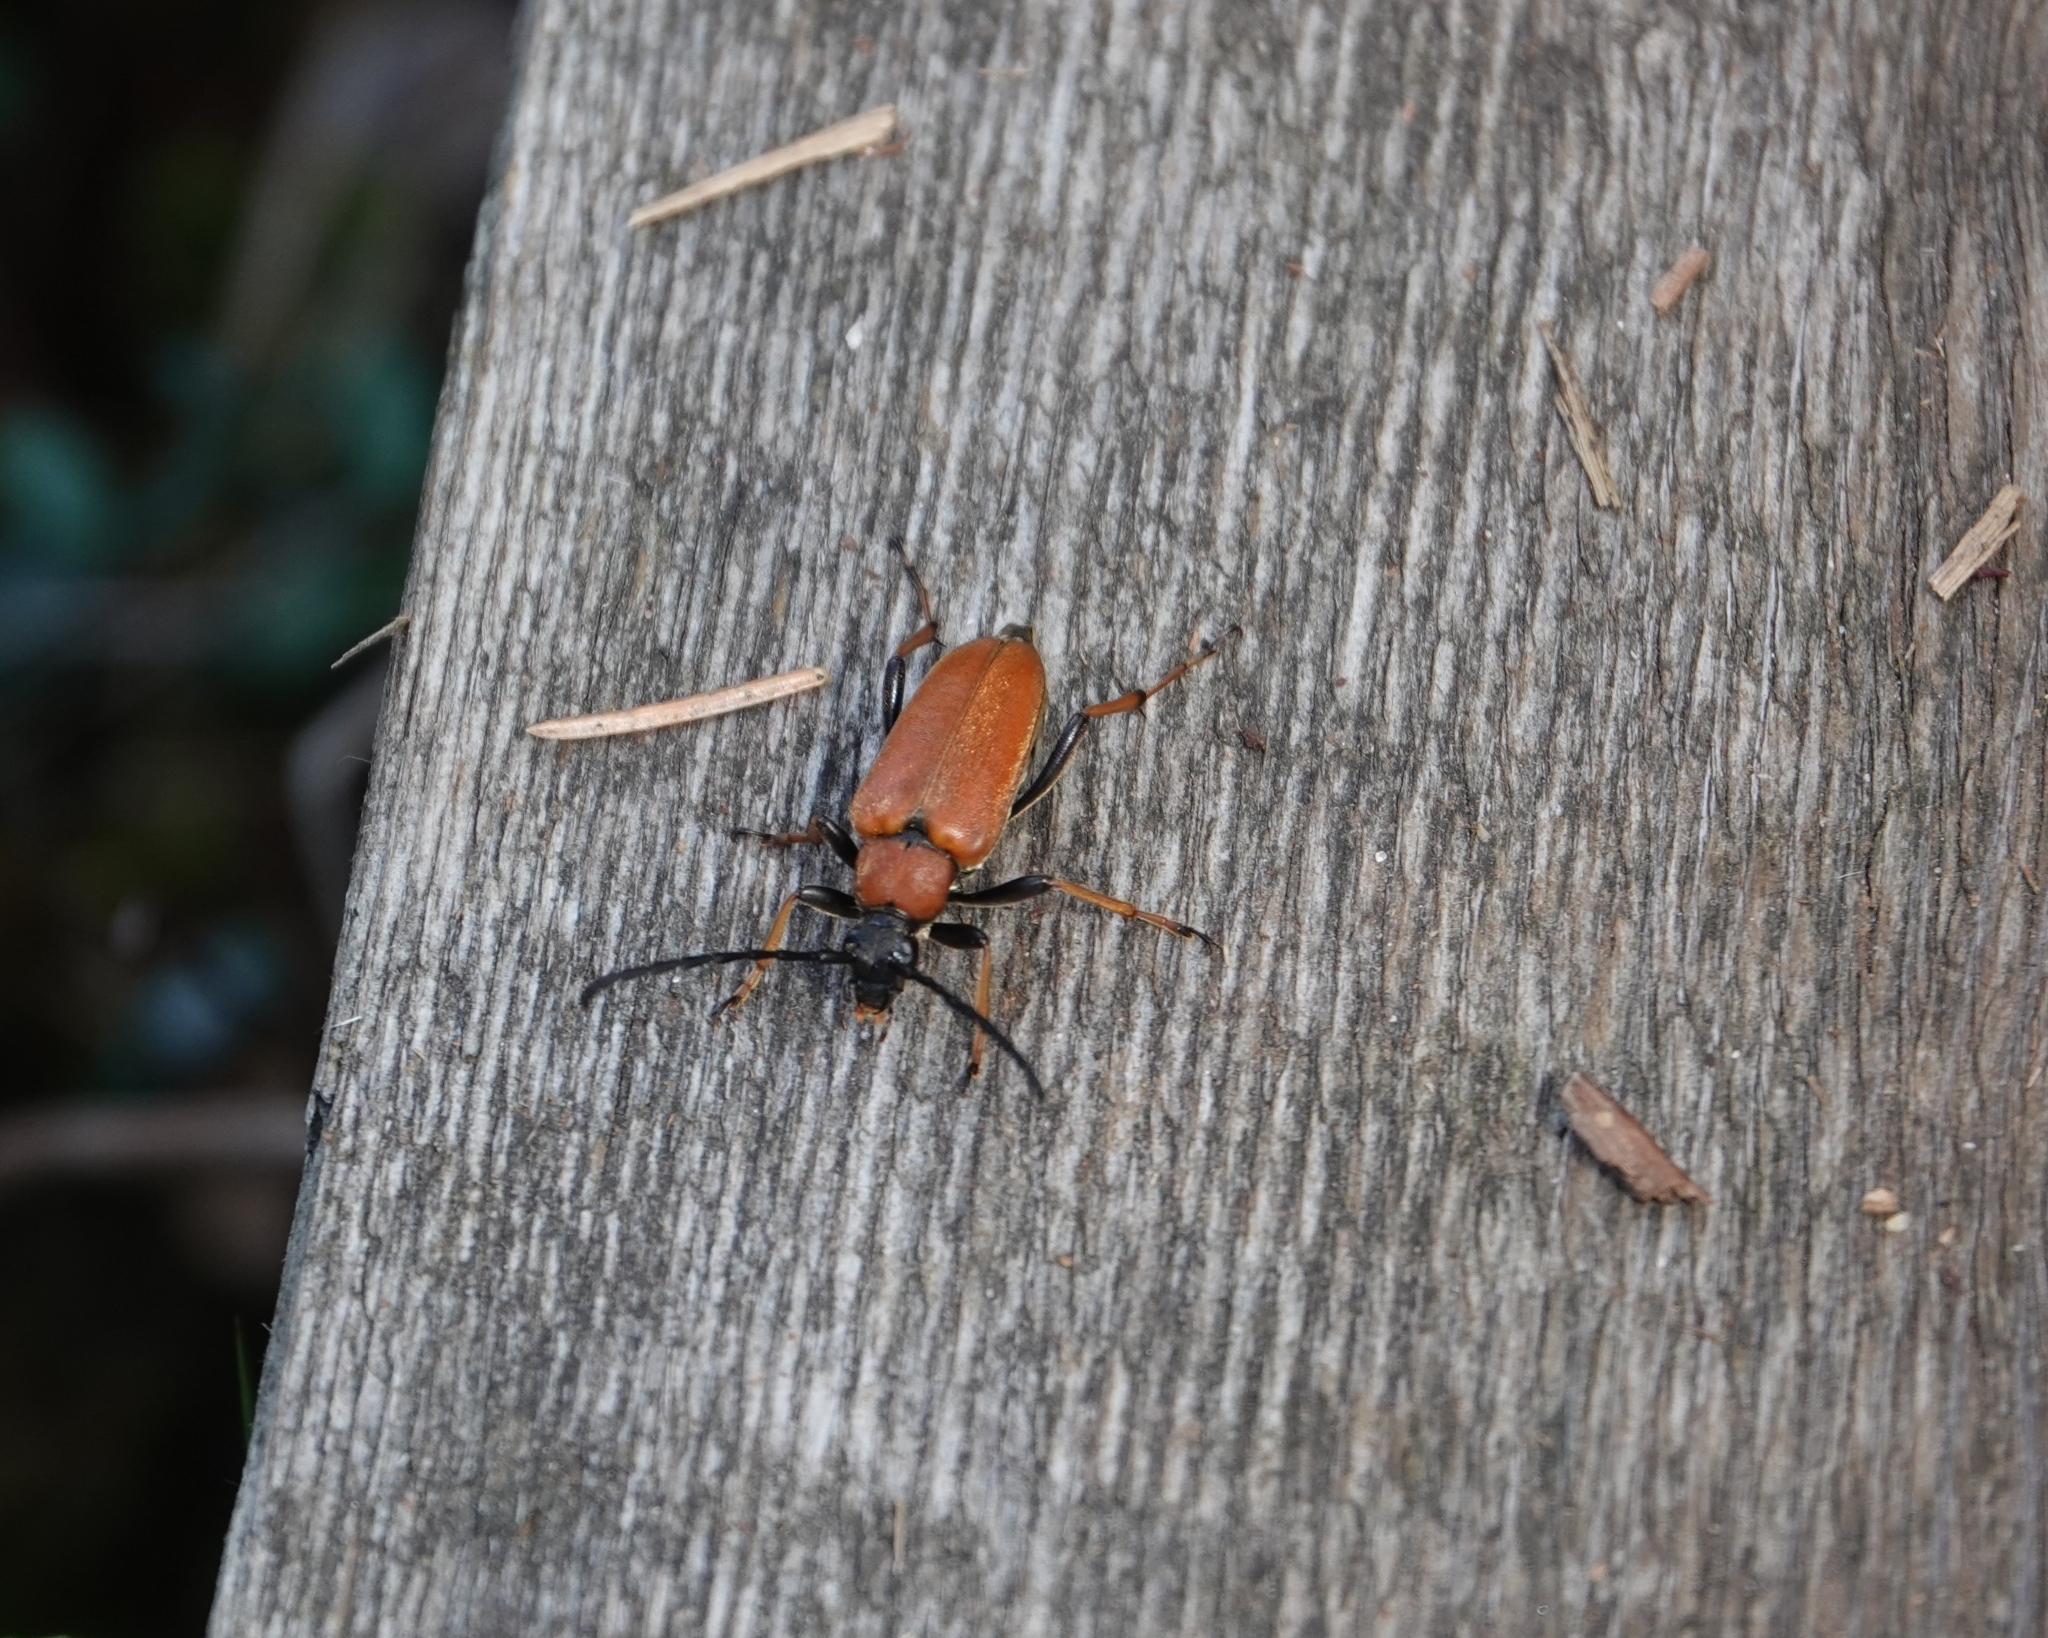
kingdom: Animalia
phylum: Arthropoda
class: Insecta
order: Coleoptera
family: Cerambycidae
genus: Stictoleptura
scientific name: Stictoleptura rubra
